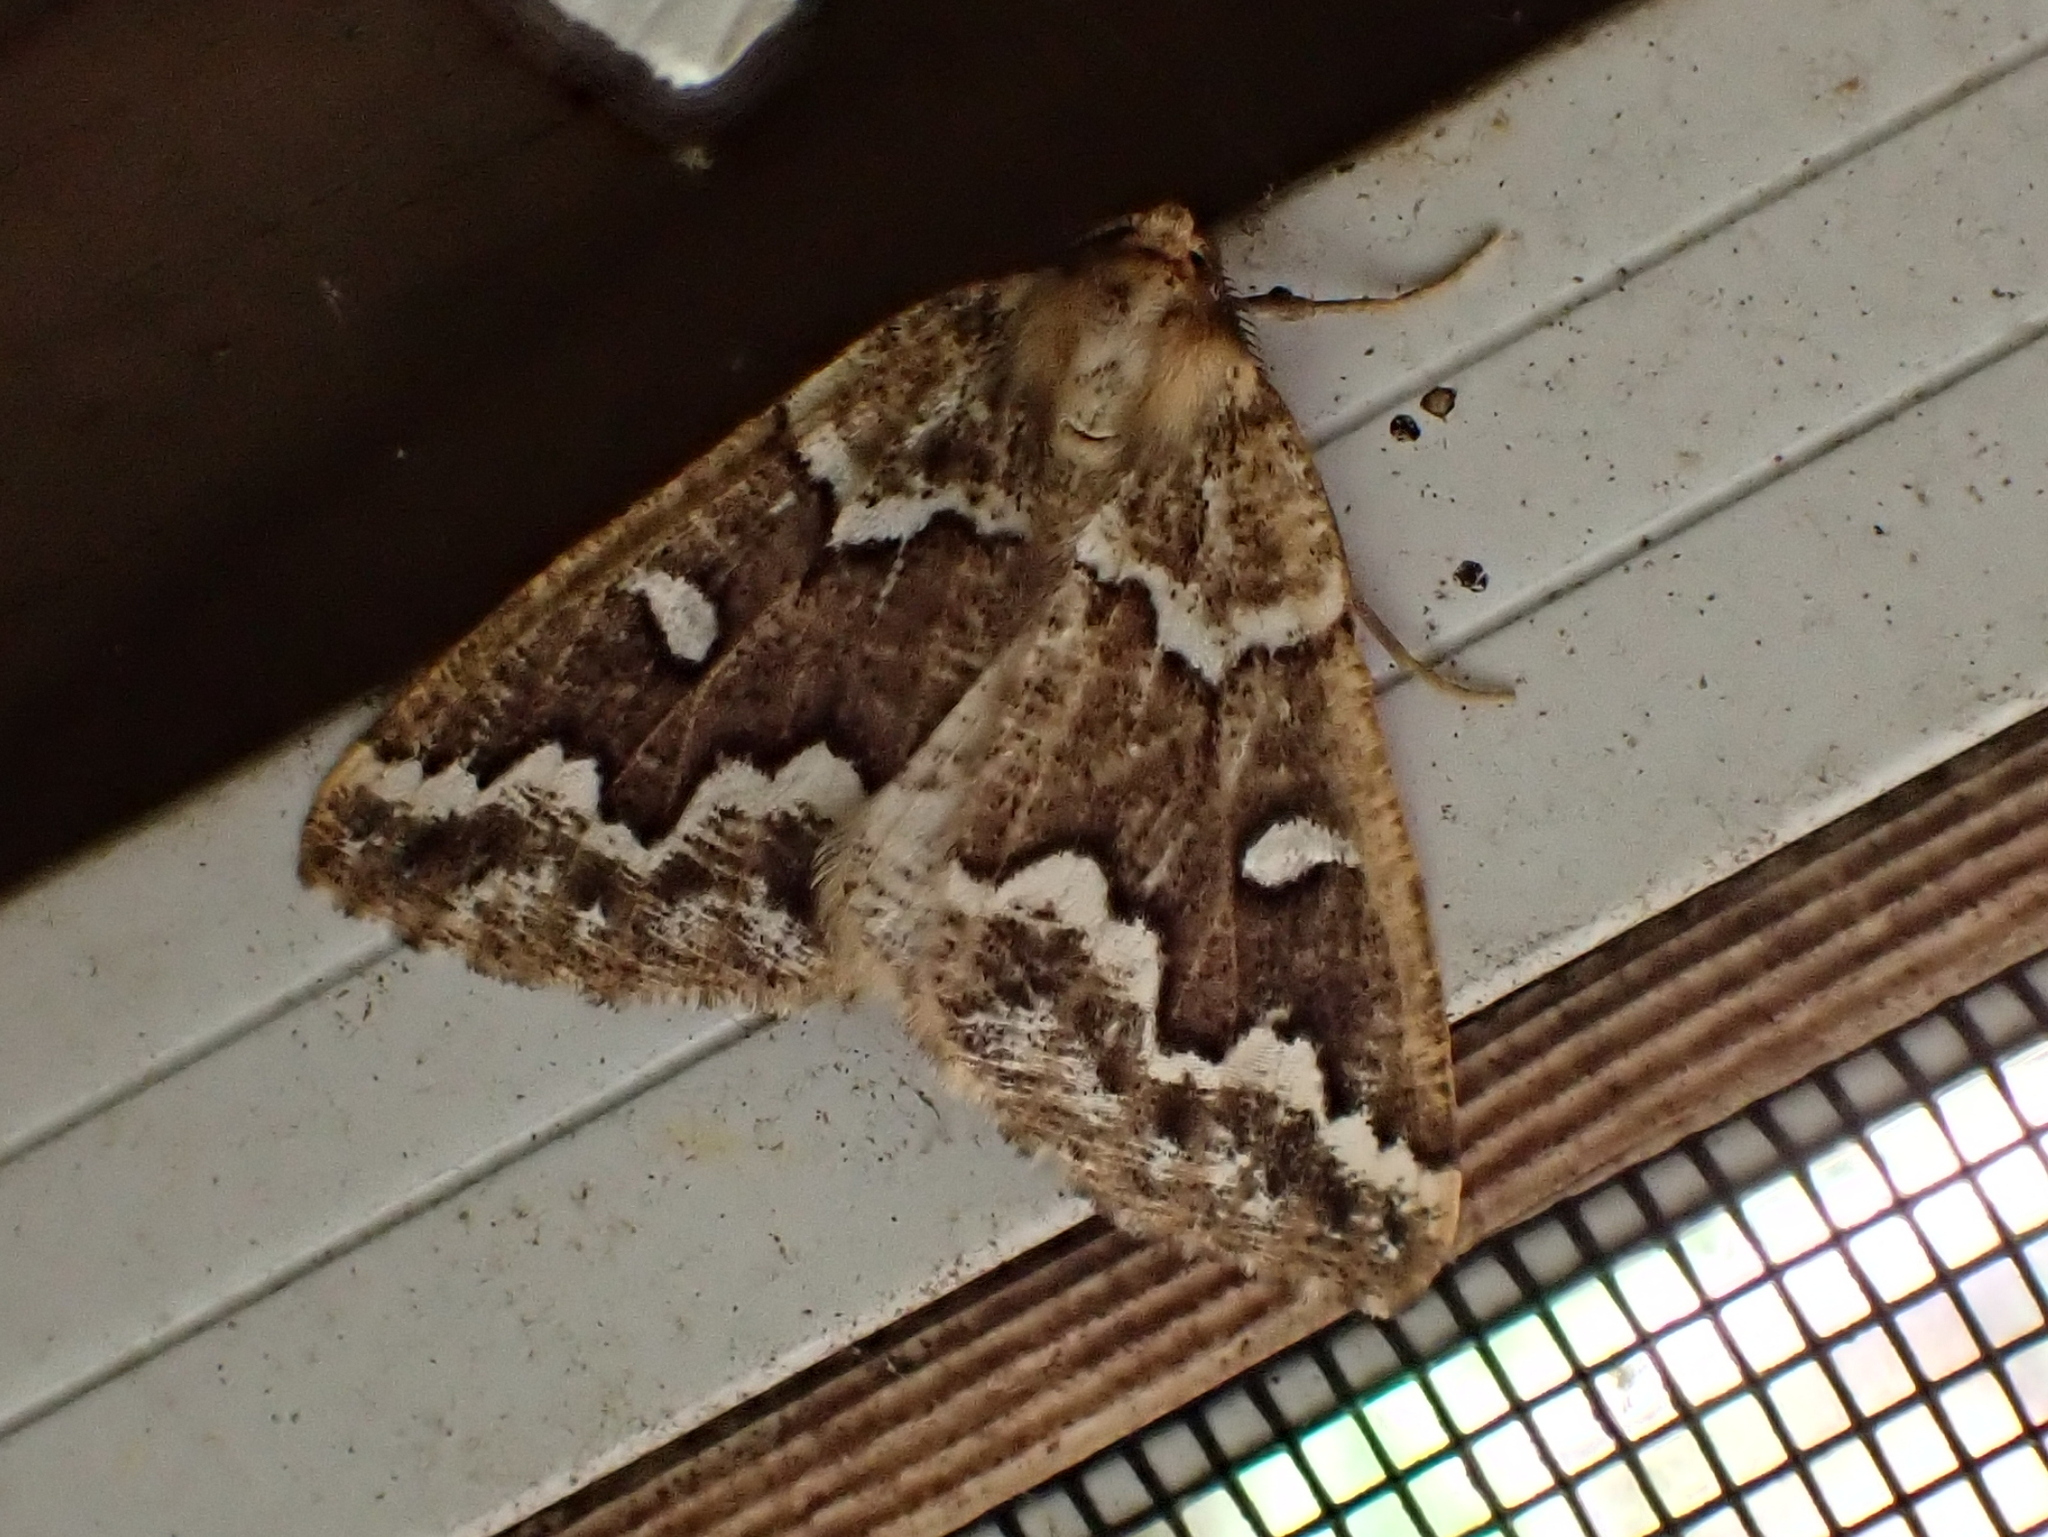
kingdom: Animalia
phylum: Arthropoda
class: Insecta
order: Lepidoptera
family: Geometridae
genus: Caripeta
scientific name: Caripeta divisata
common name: Gray spruce looper
